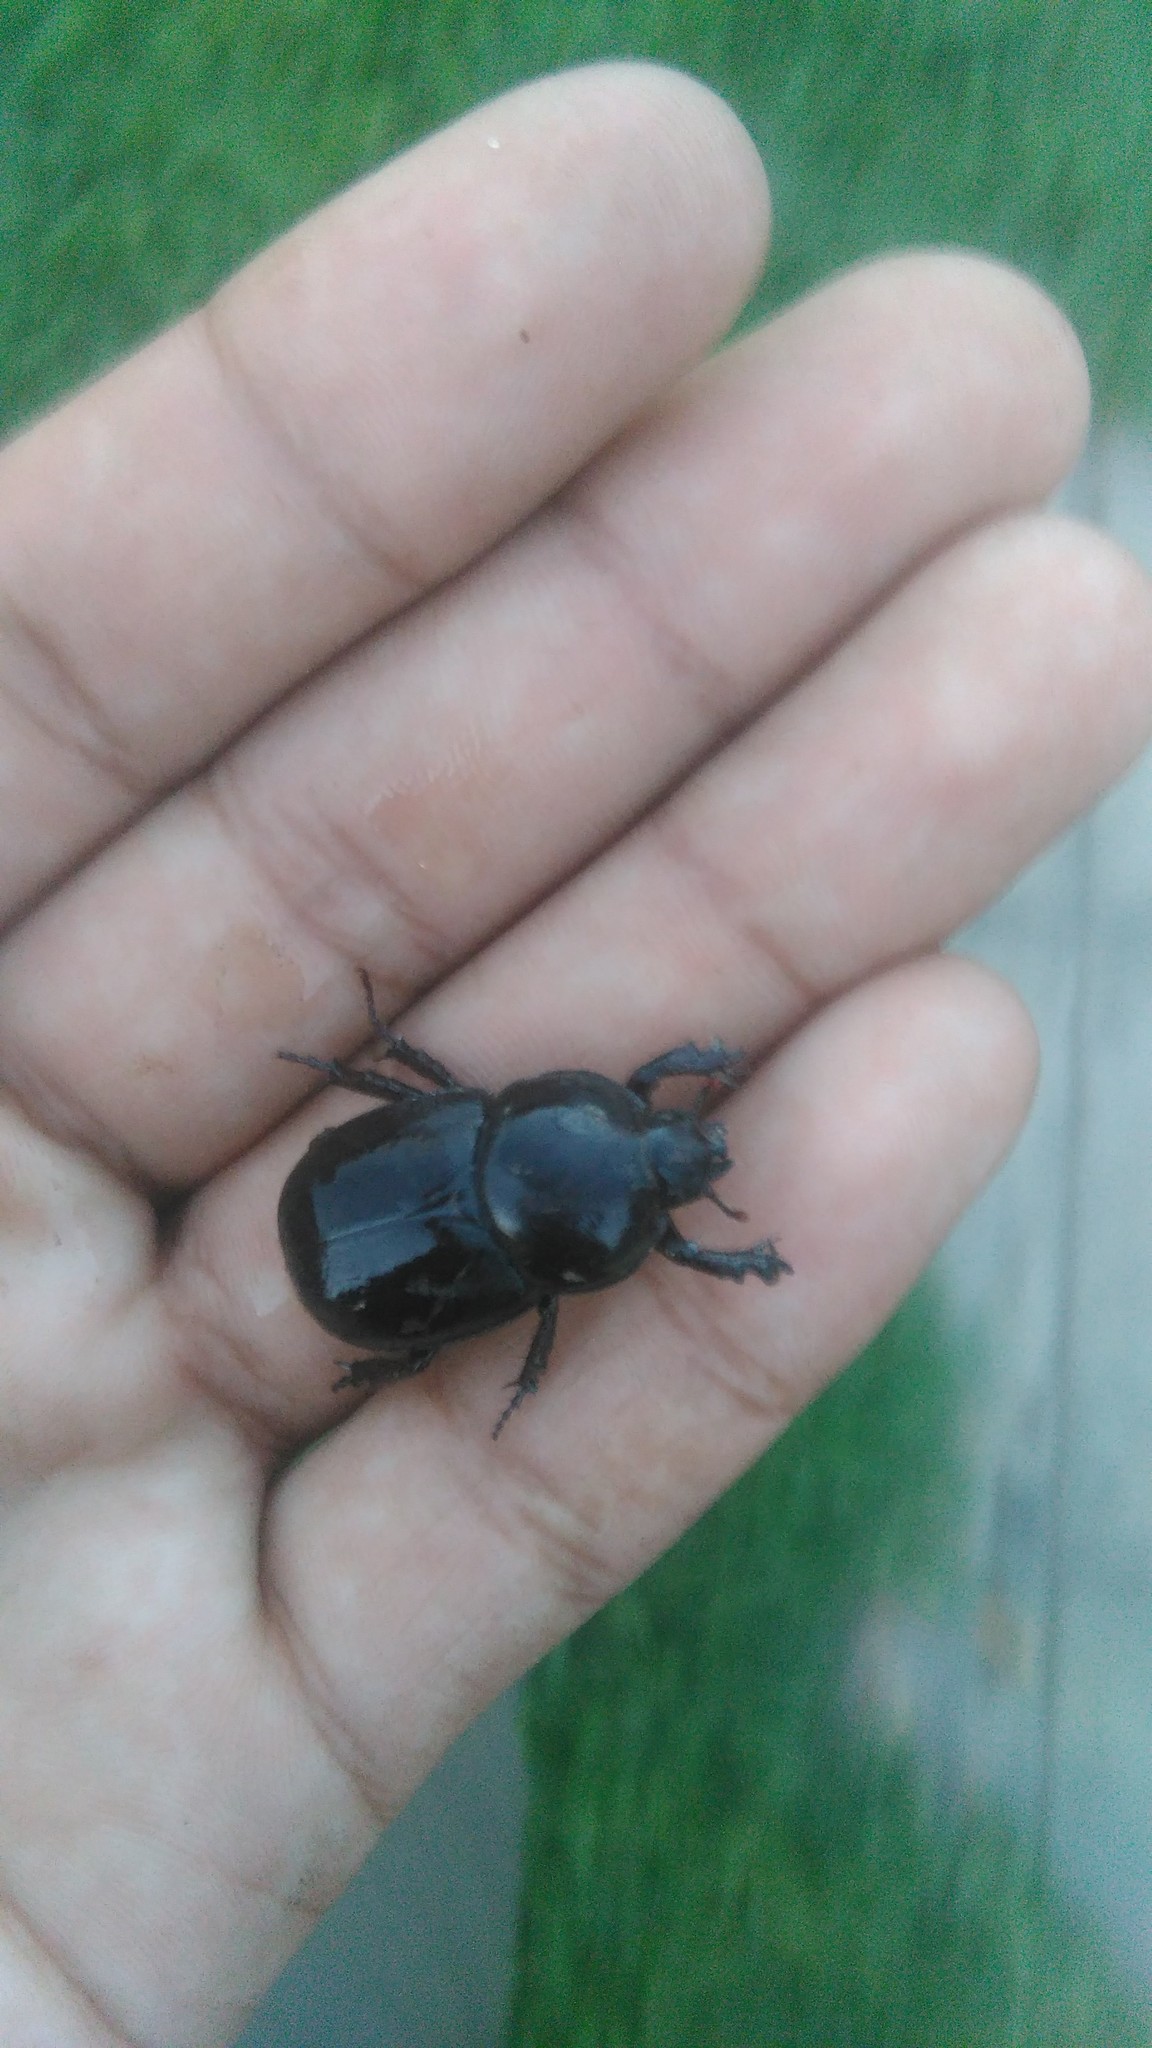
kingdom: Animalia
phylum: Arthropoda
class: Insecta
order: Coleoptera
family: Scarabaeidae
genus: Diloboderus
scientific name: Diloboderus abderus
